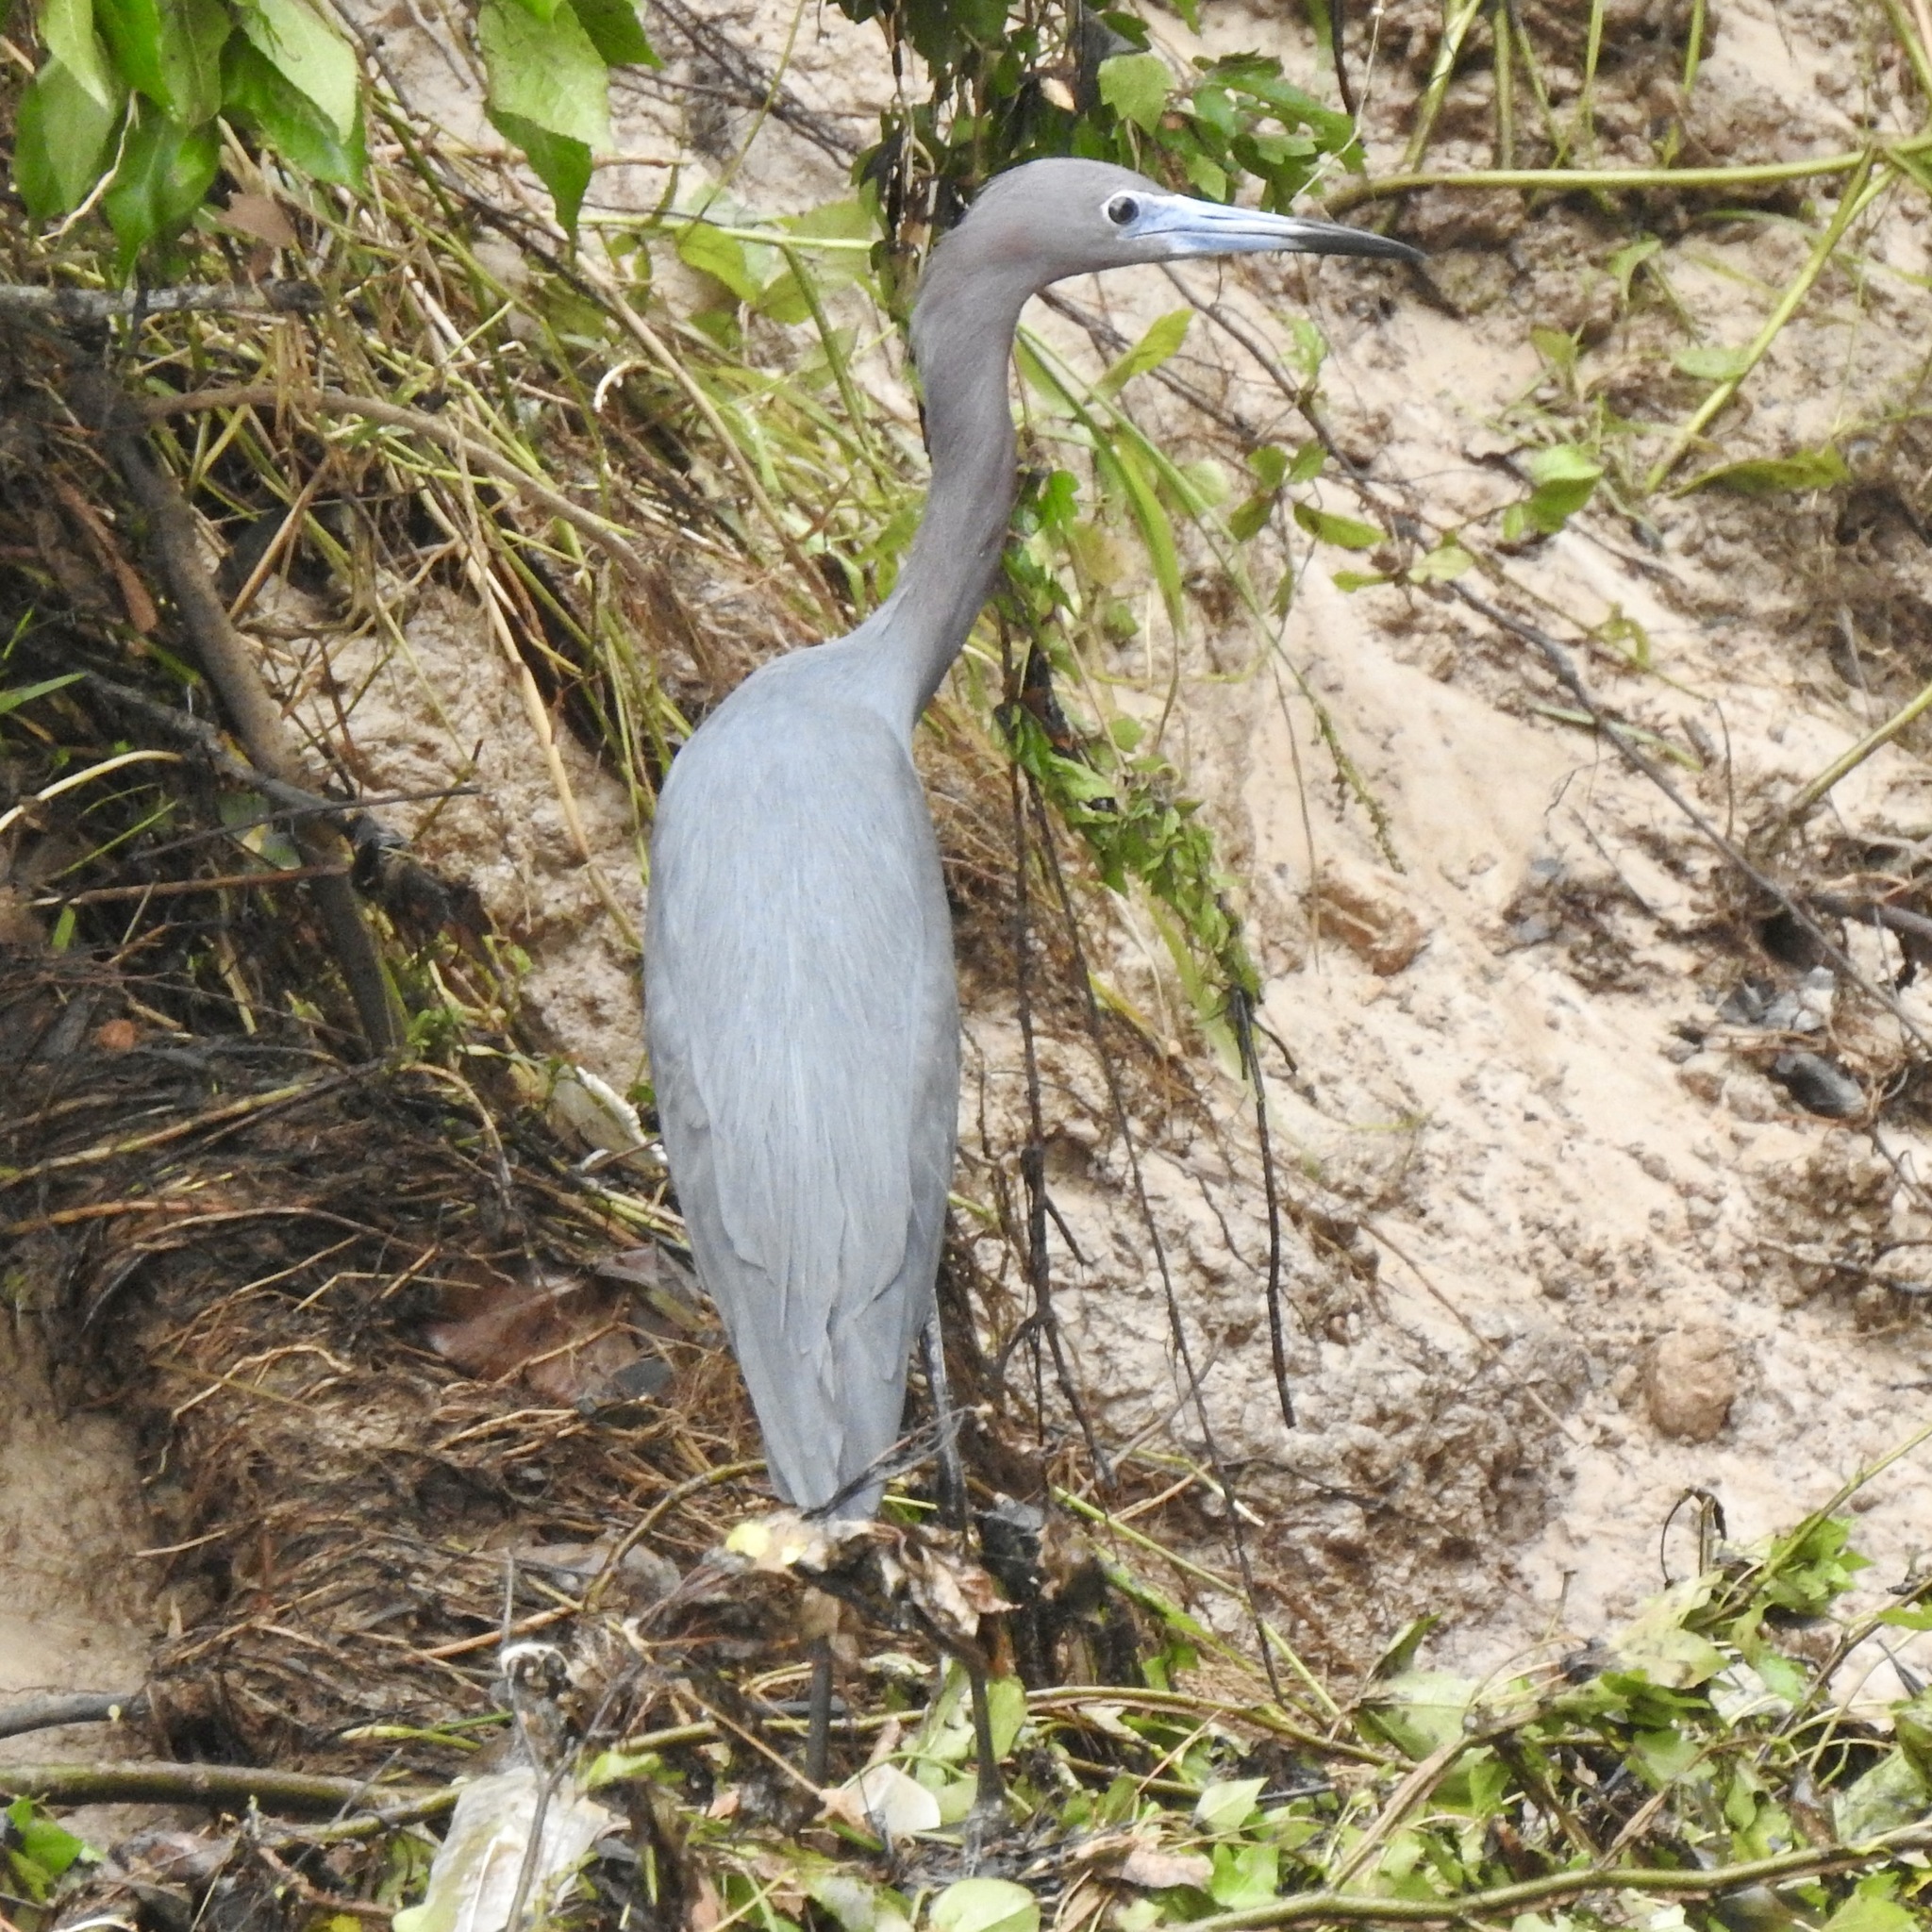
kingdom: Animalia
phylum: Chordata
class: Aves
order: Pelecaniformes
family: Ardeidae
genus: Egretta
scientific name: Egretta caerulea
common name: Little blue heron
